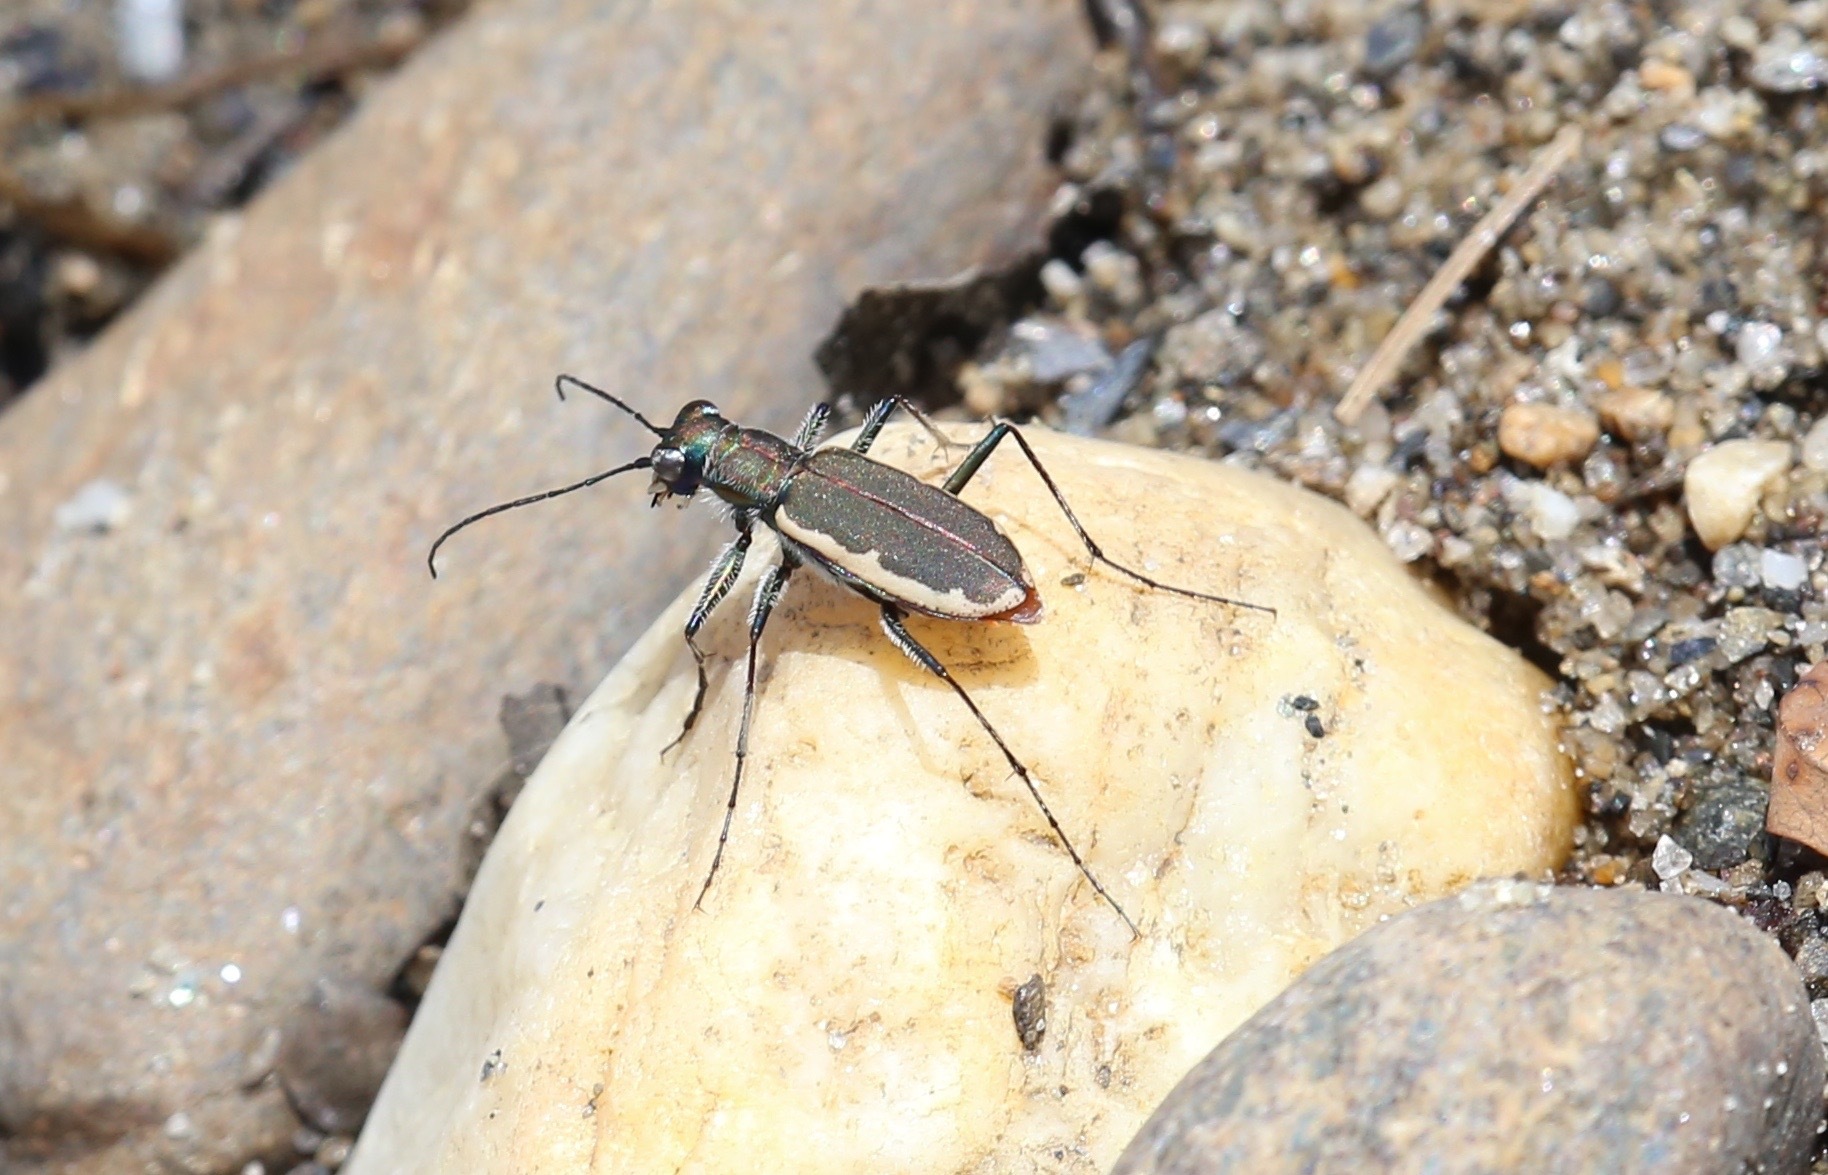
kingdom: Animalia
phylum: Arthropoda
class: Insecta
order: Coleoptera
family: Carabidae
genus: Cicindela
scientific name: Cicindela marginipennis
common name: Cobblestone tiger beetle
